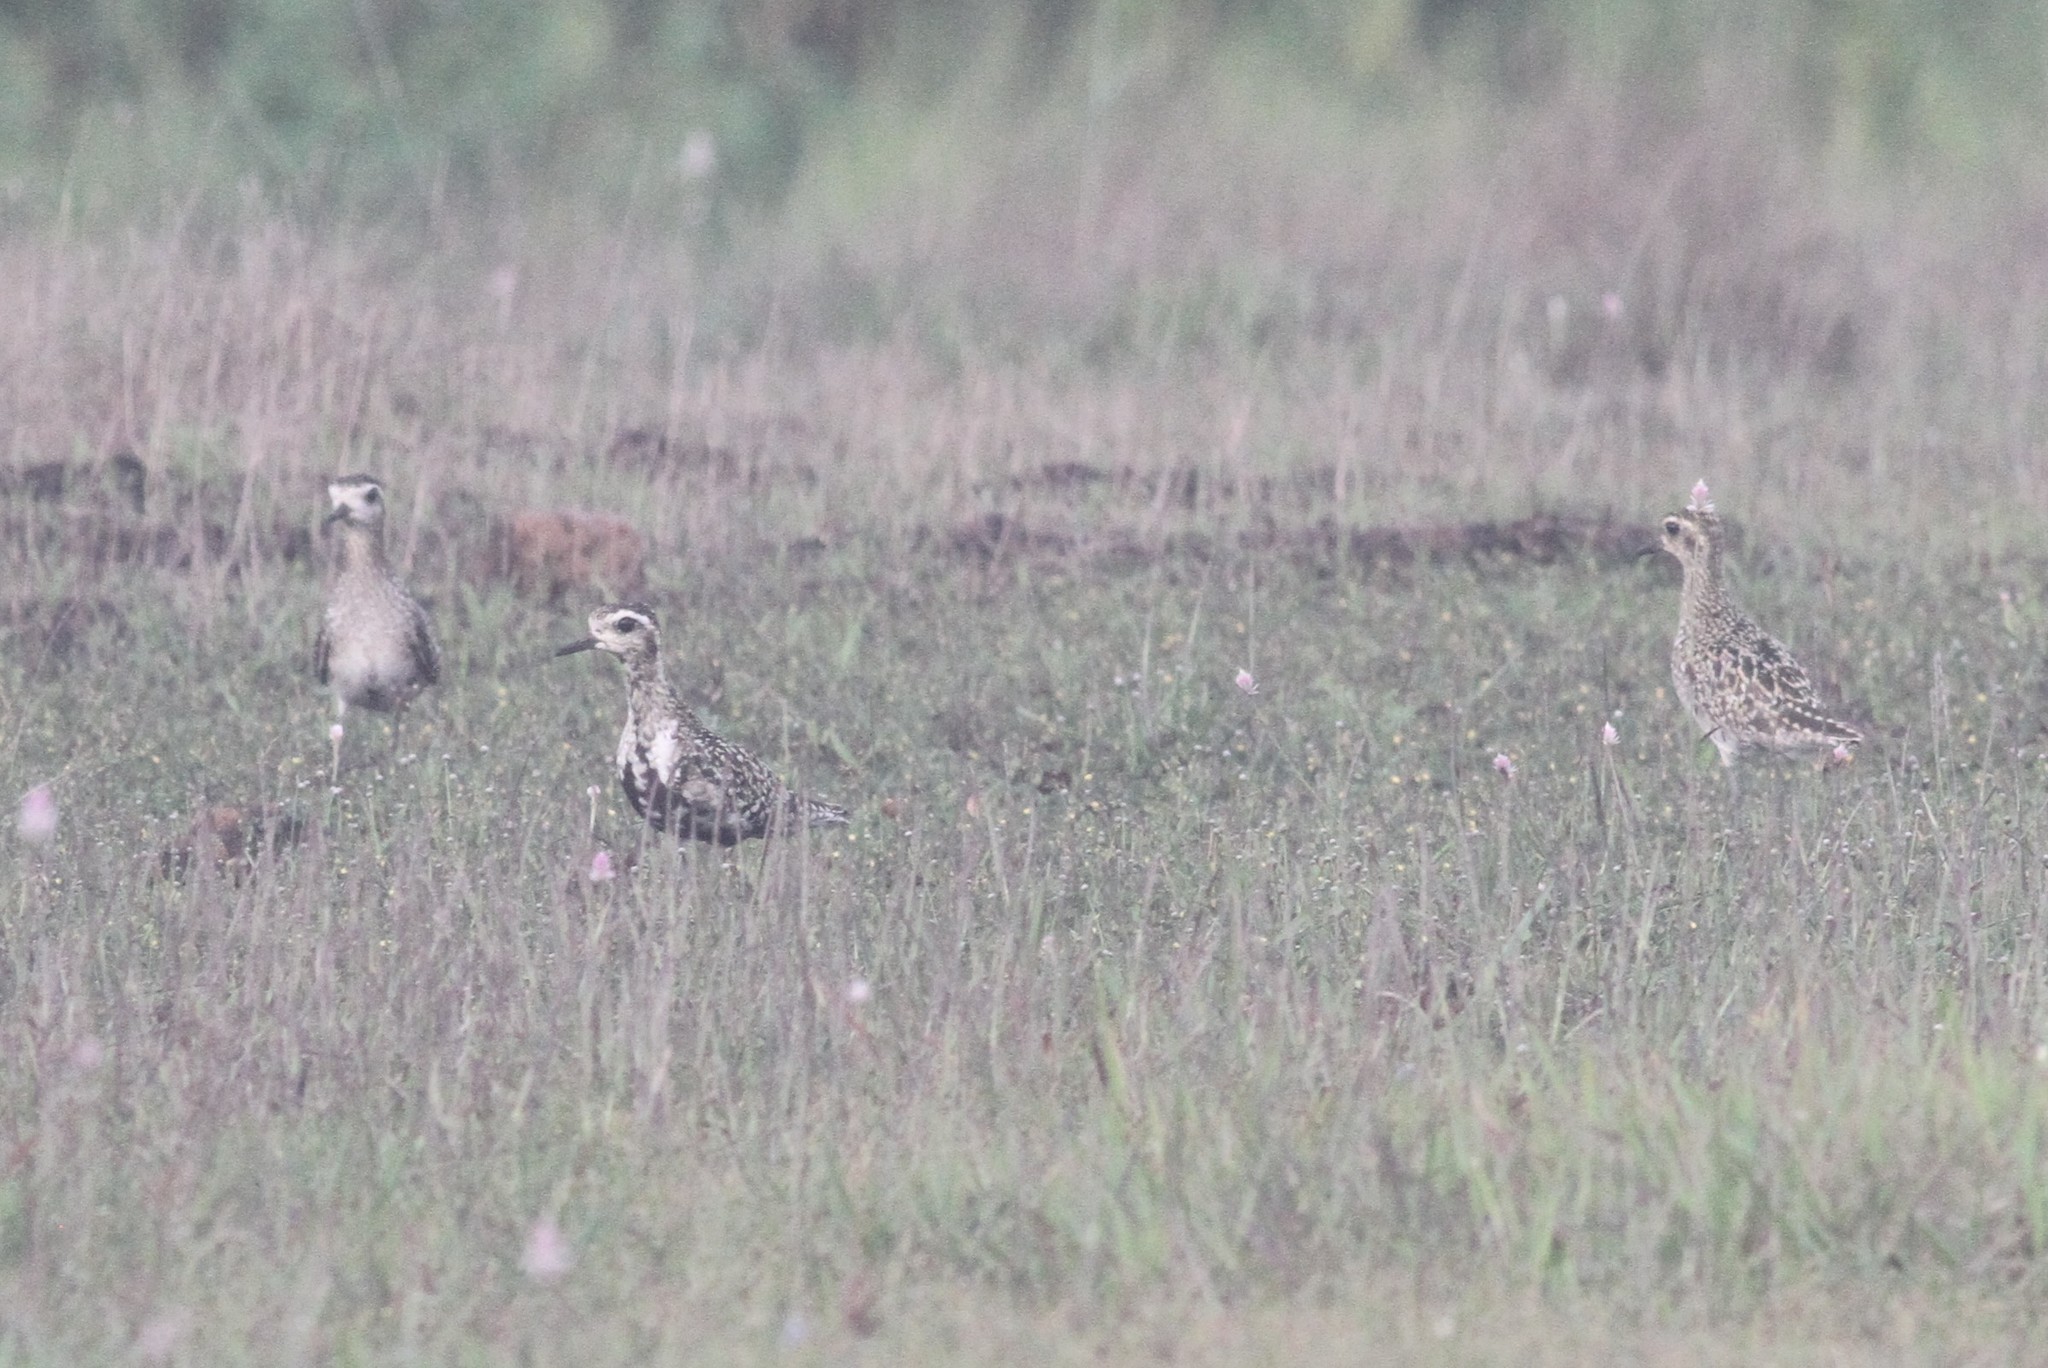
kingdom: Animalia
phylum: Chordata
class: Aves
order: Charadriiformes
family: Charadriidae
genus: Pluvialis
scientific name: Pluvialis fulva
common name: Pacific golden plover
